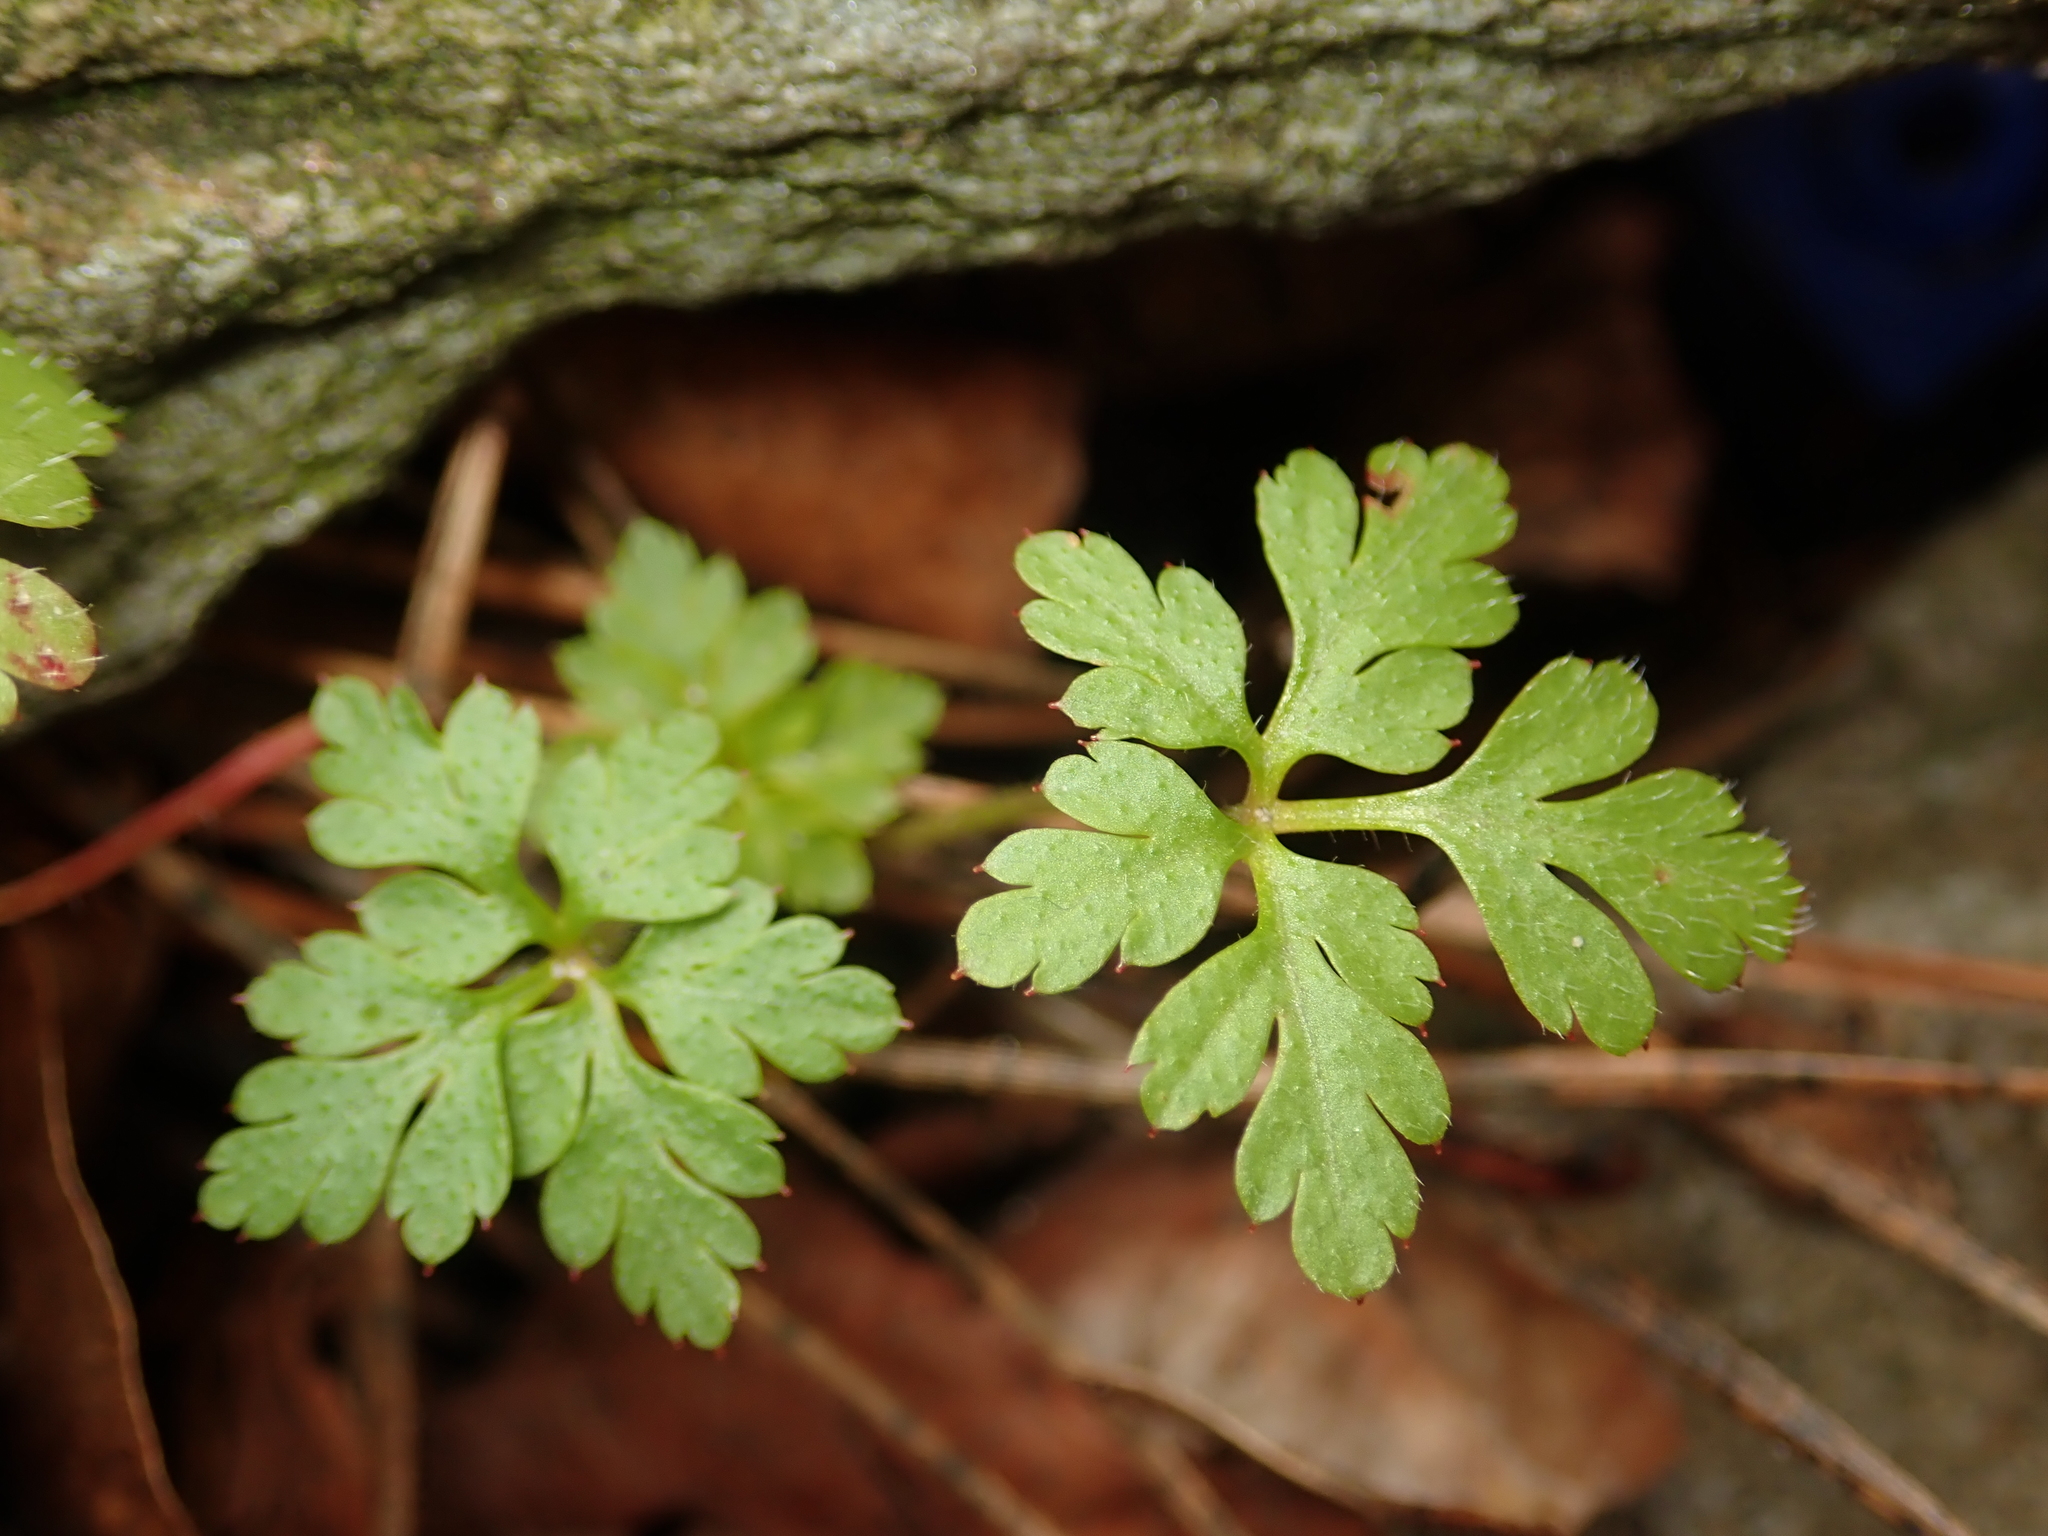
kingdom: Plantae
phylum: Tracheophyta
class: Magnoliopsida
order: Geraniales
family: Geraniaceae
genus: Geranium
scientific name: Geranium robertianum
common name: Herb-robert
